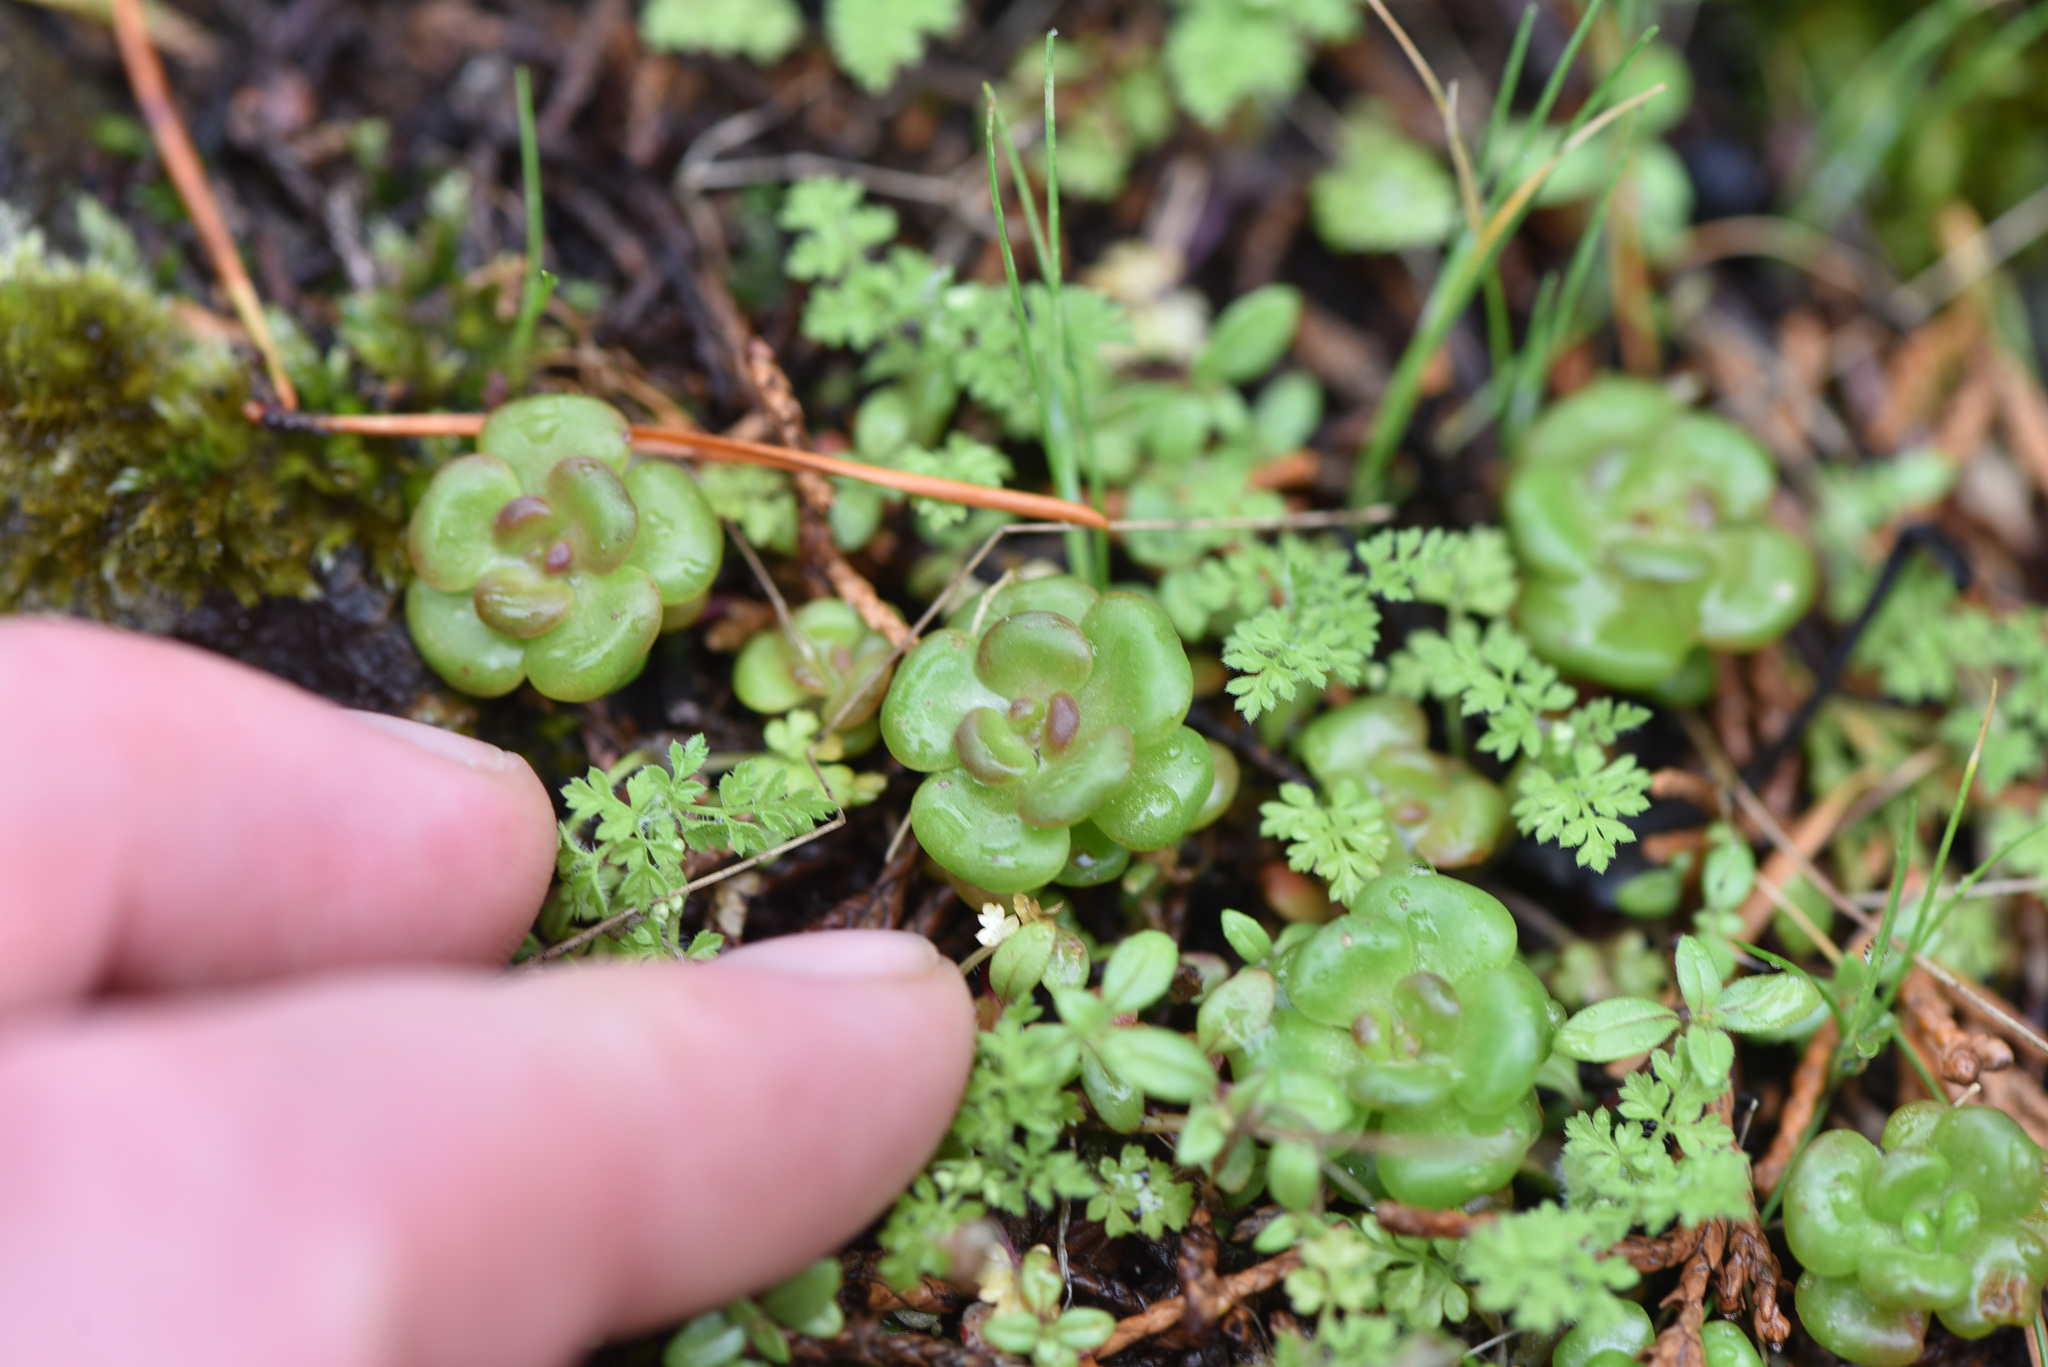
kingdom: Plantae
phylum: Tracheophyta
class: Magnoliopsida
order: Saxifragales
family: Crassulaceae
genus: Sedum
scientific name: Sedum oreganum
